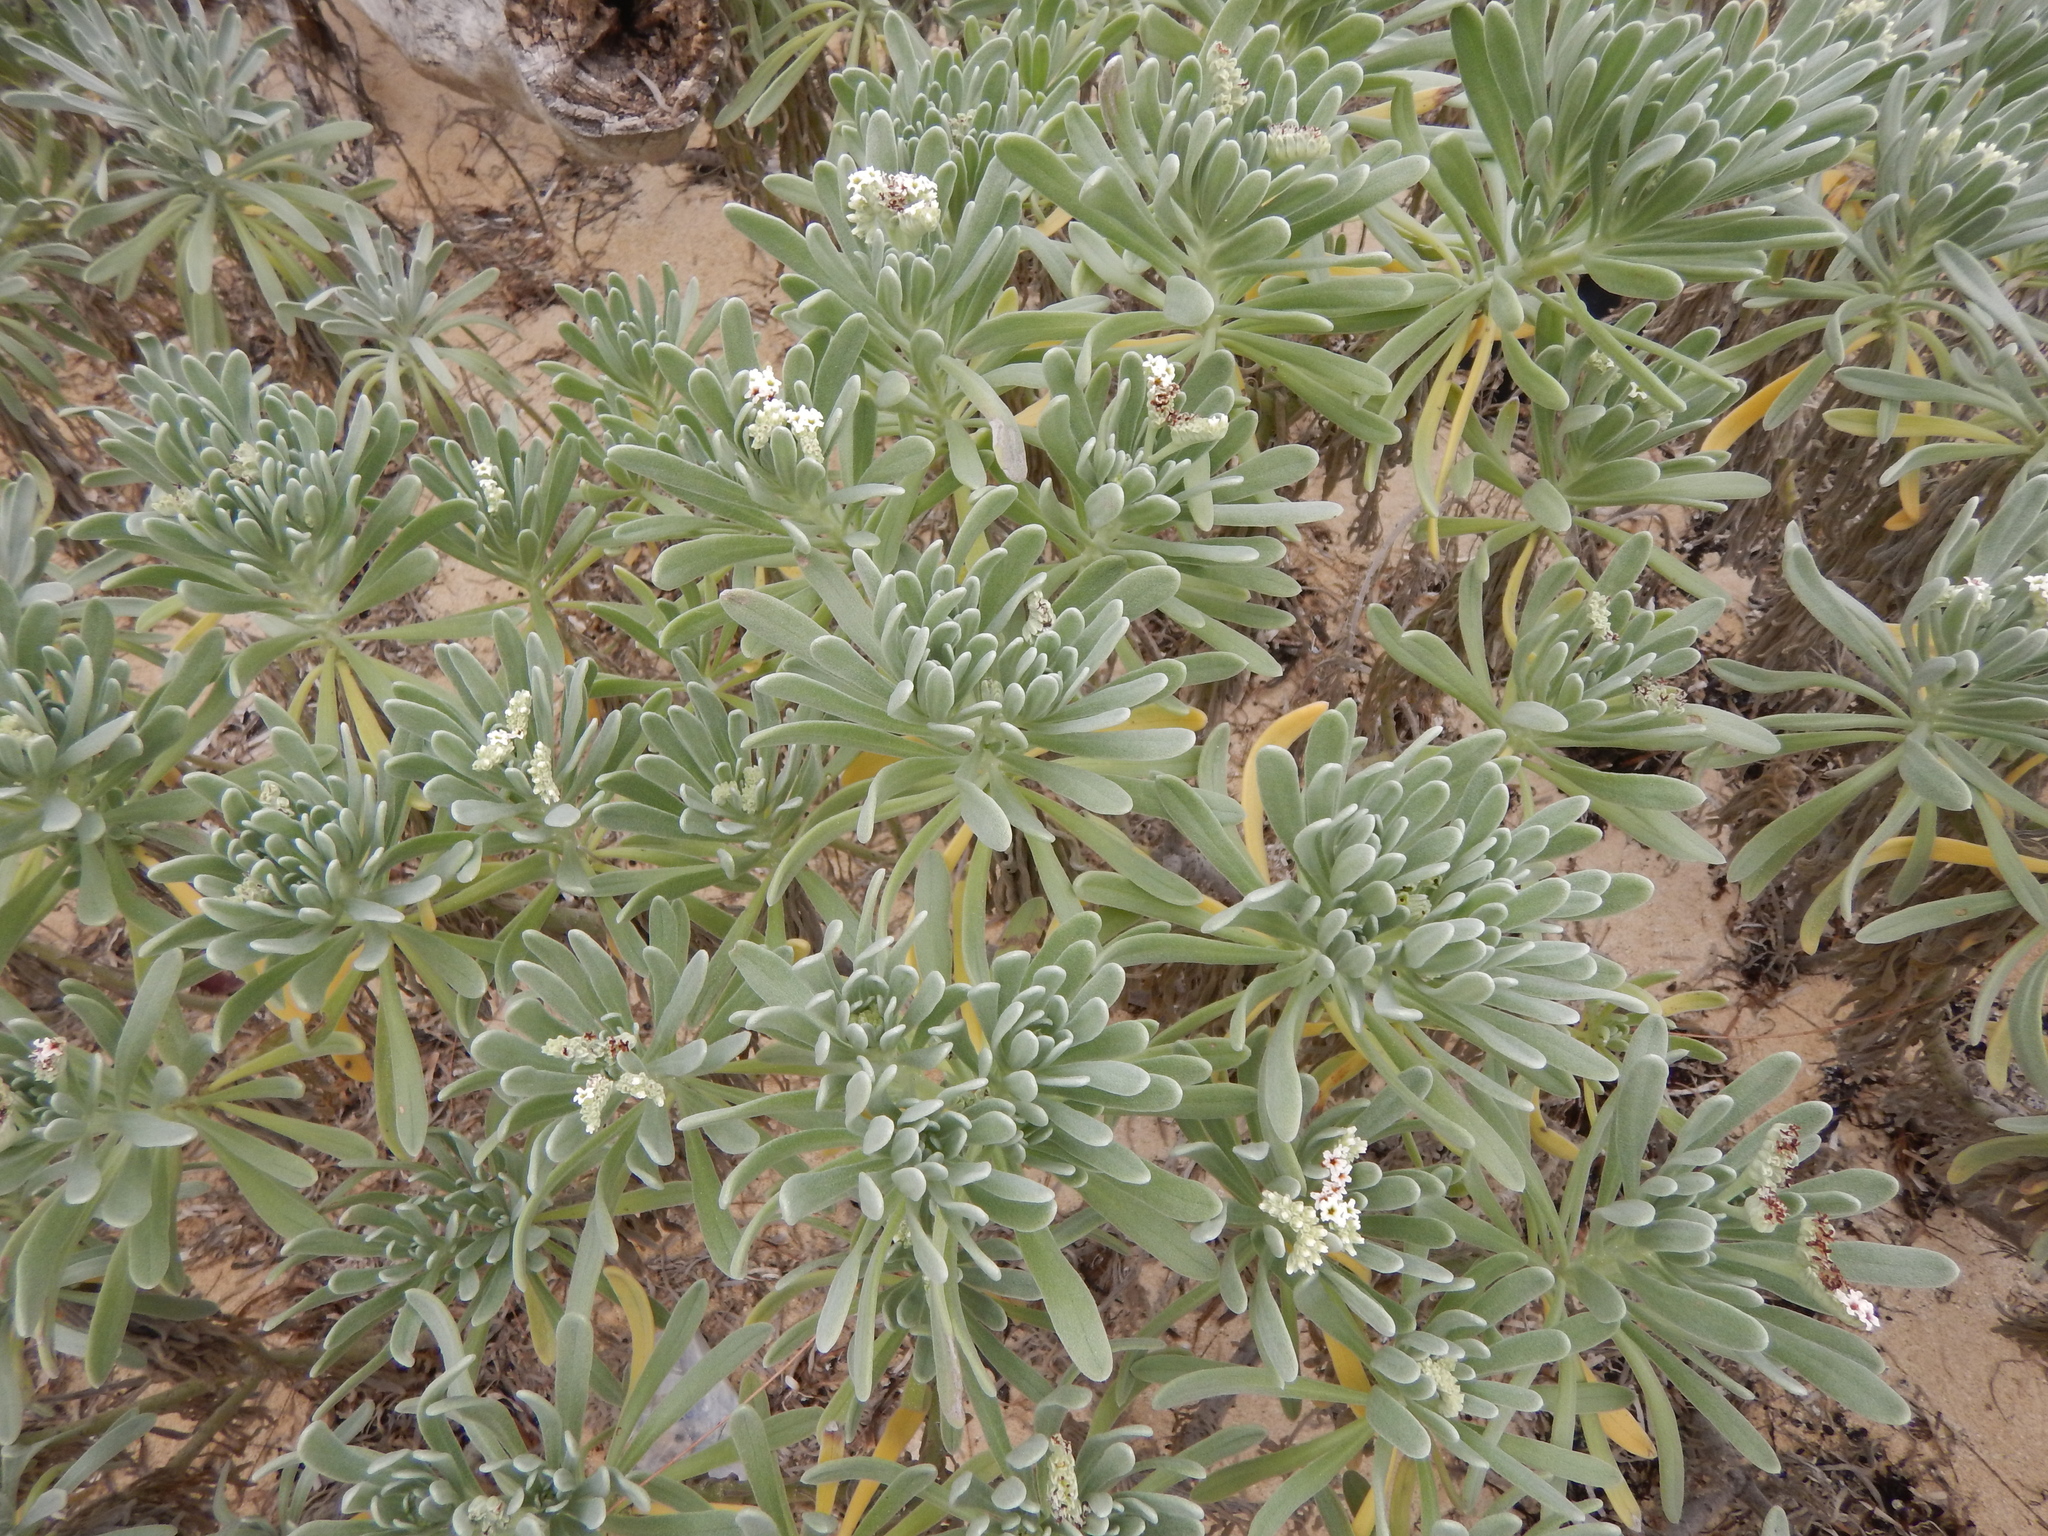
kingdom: Plantae
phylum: Tracheophyta
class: Magnoliopsida
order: Boraginales
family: Heliotropiaceae
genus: Tournefortia
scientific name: Tournefortia gnaphalodes
